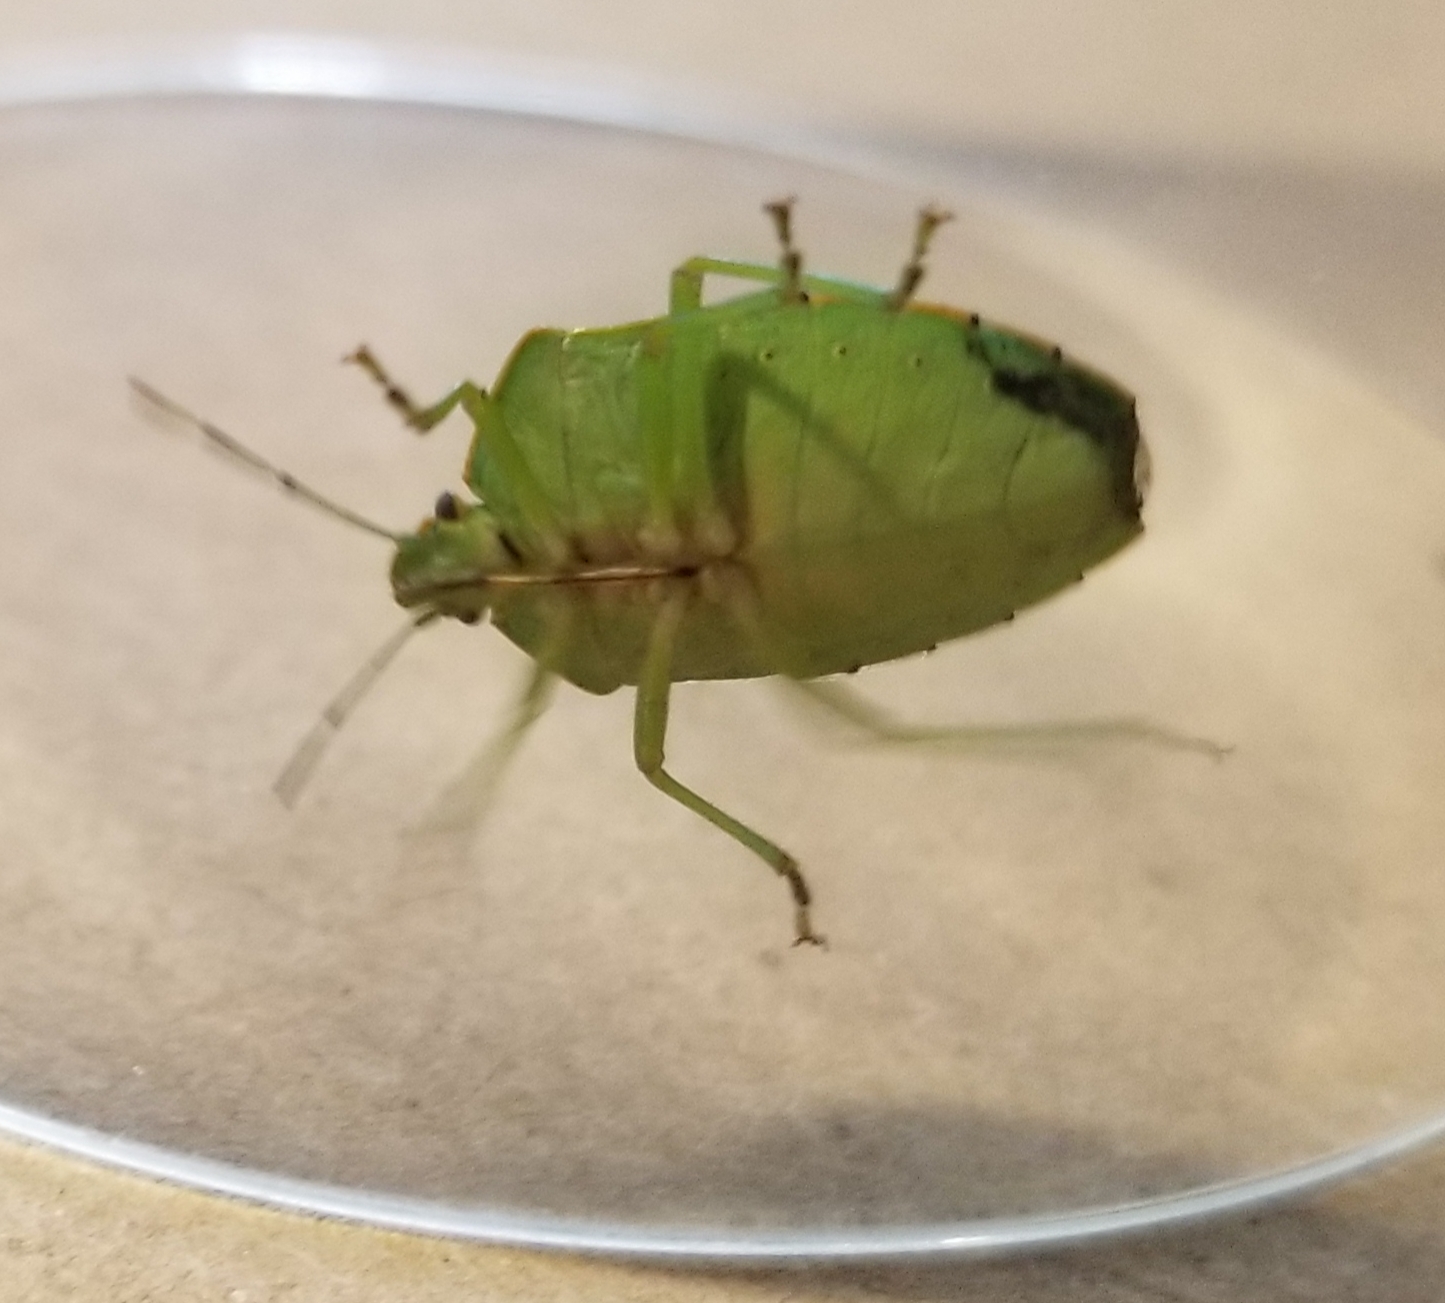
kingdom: Animalia
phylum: Arthropoda
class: Insecta
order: Hemiptera
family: Pentatomidae
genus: Chinavia
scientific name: Chinavia hilaris
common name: Green stink bug
